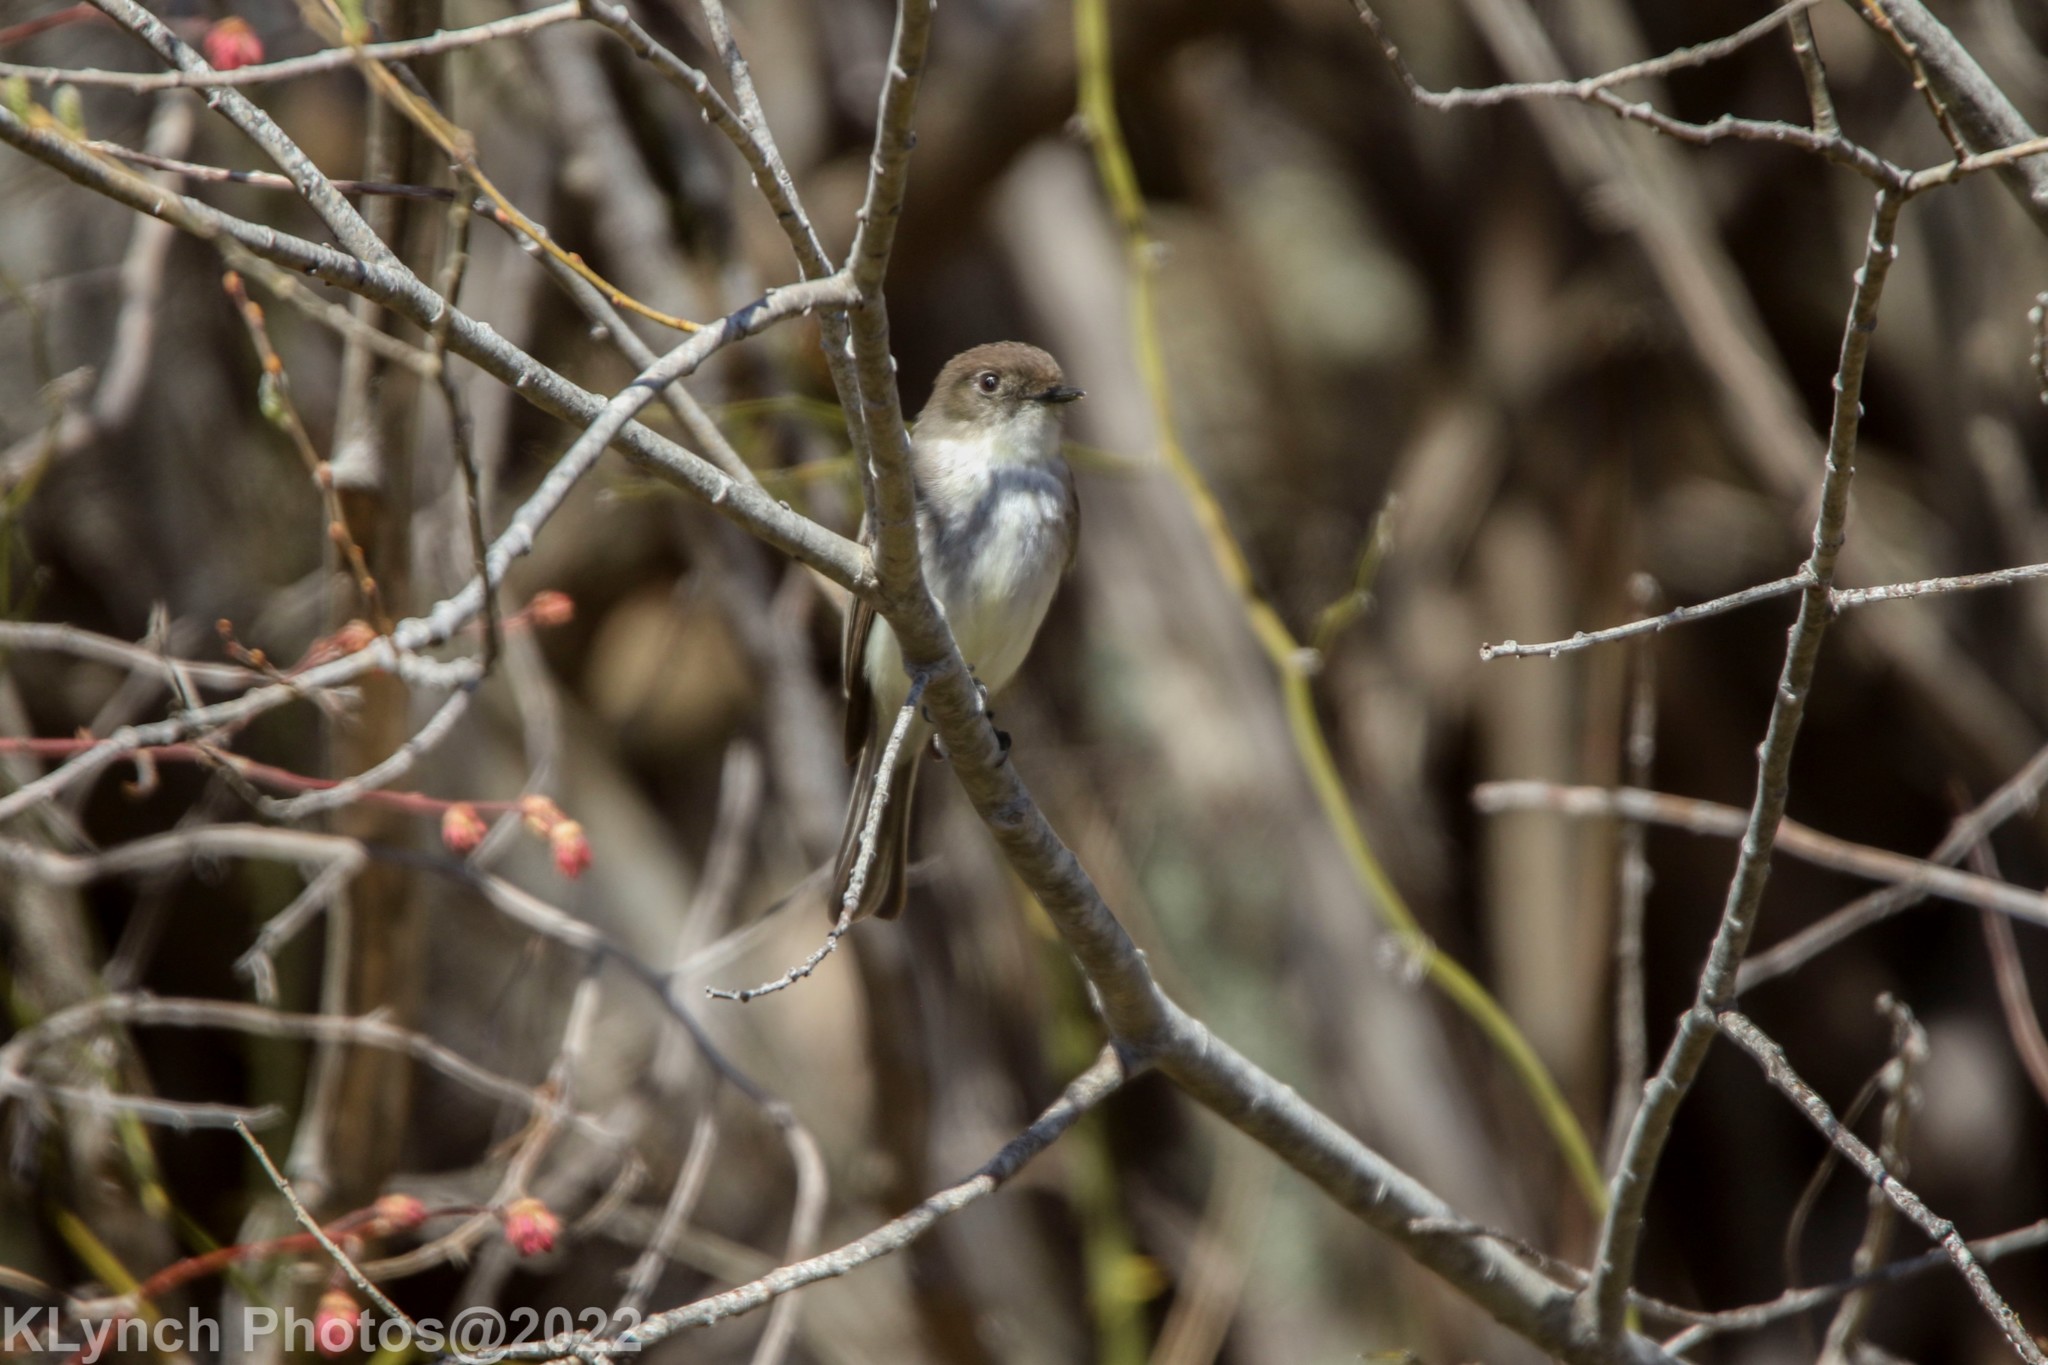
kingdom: Animalia
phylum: Chordata
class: Aves
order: Passeriformes
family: Tyrannidae
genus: Sayornis
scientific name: Sayornis phoebe
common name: Eastern phoebe
